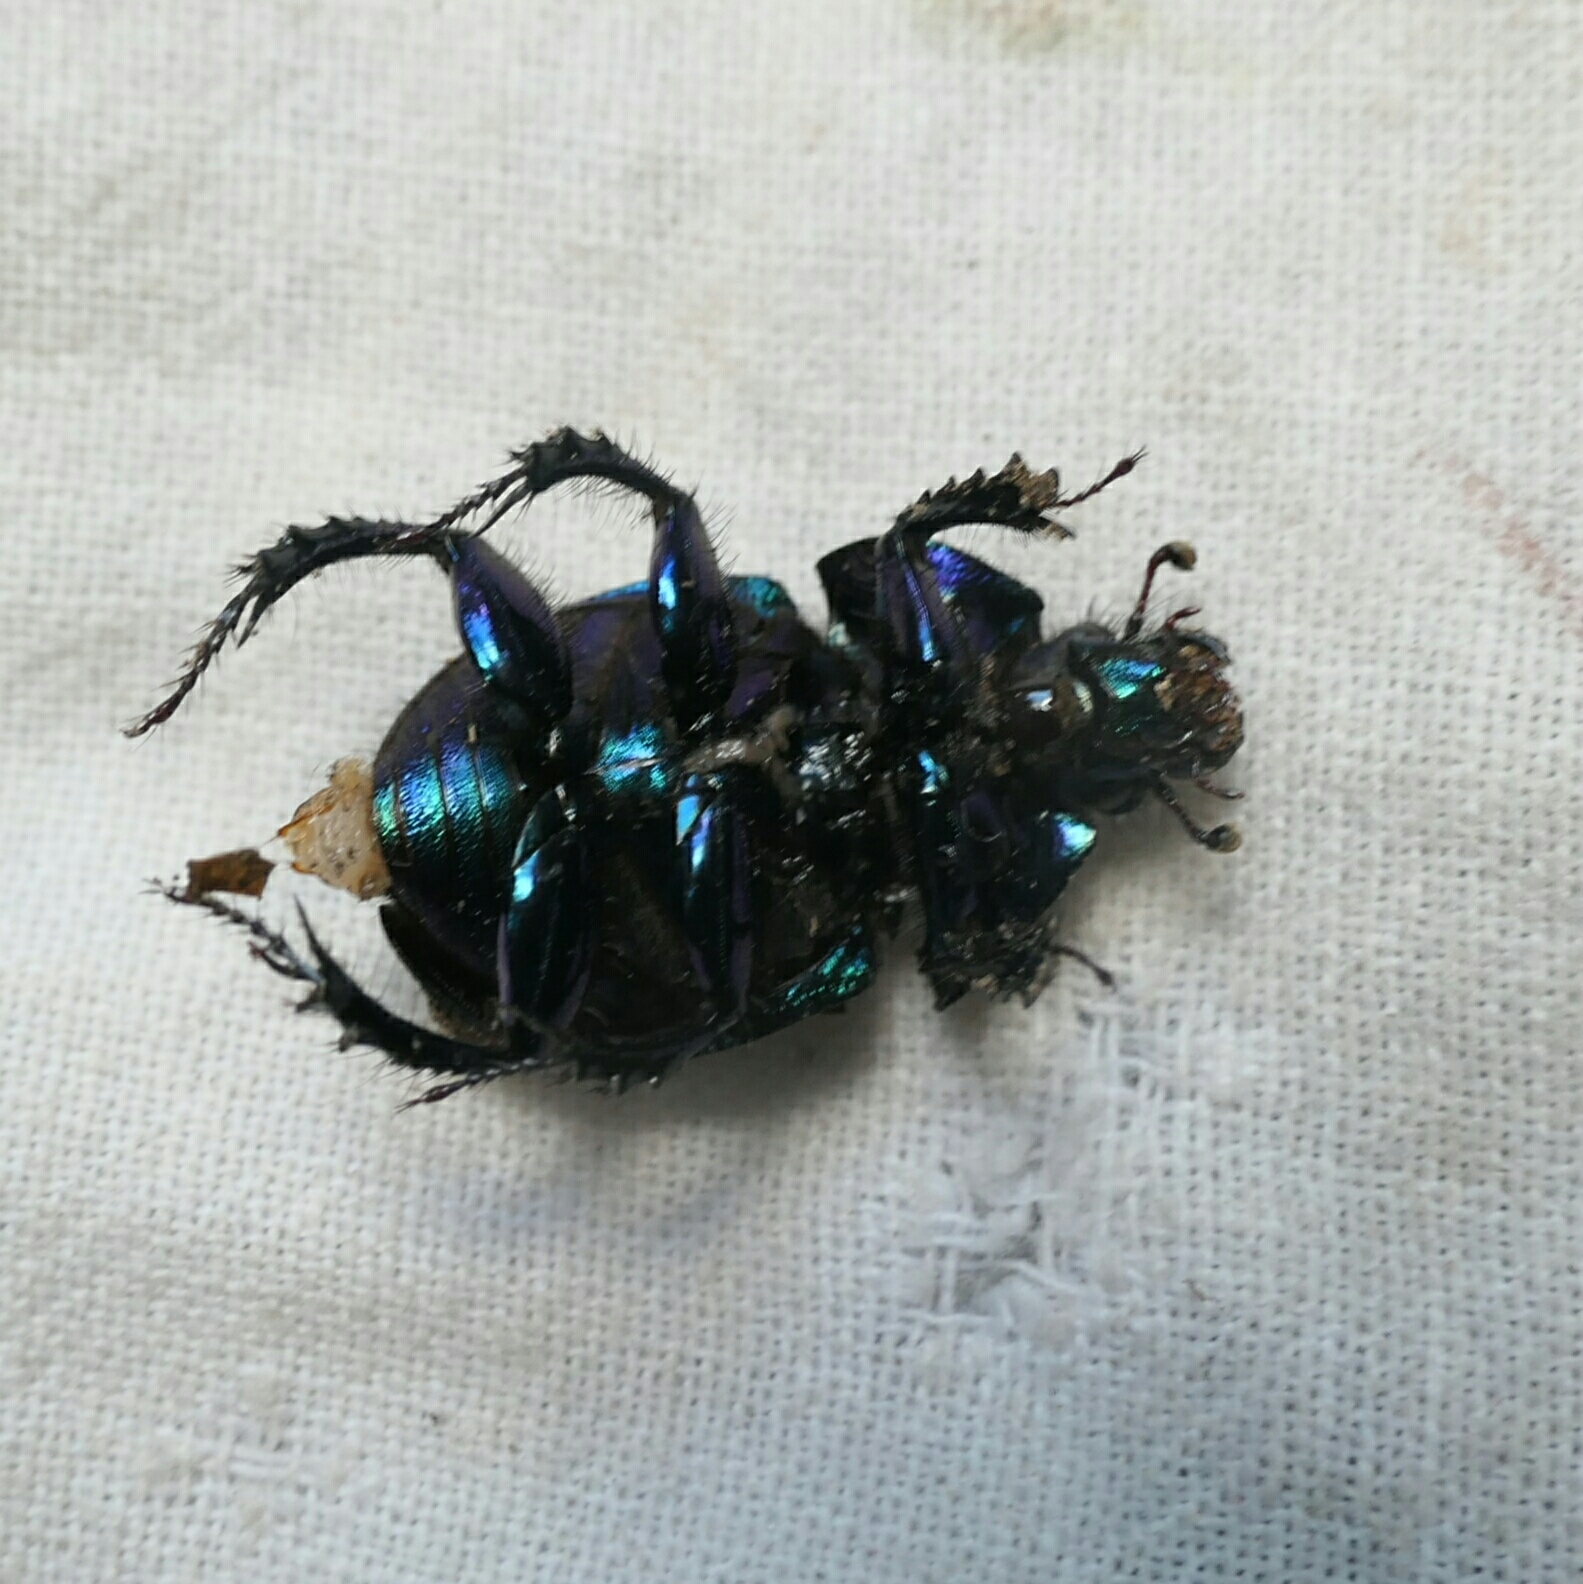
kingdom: Animalia
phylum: Arthropoda
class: Insecta
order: Coleoptera
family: Geotrupidae
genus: Anoplotrupes
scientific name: Anoplotrupes stercorosus
